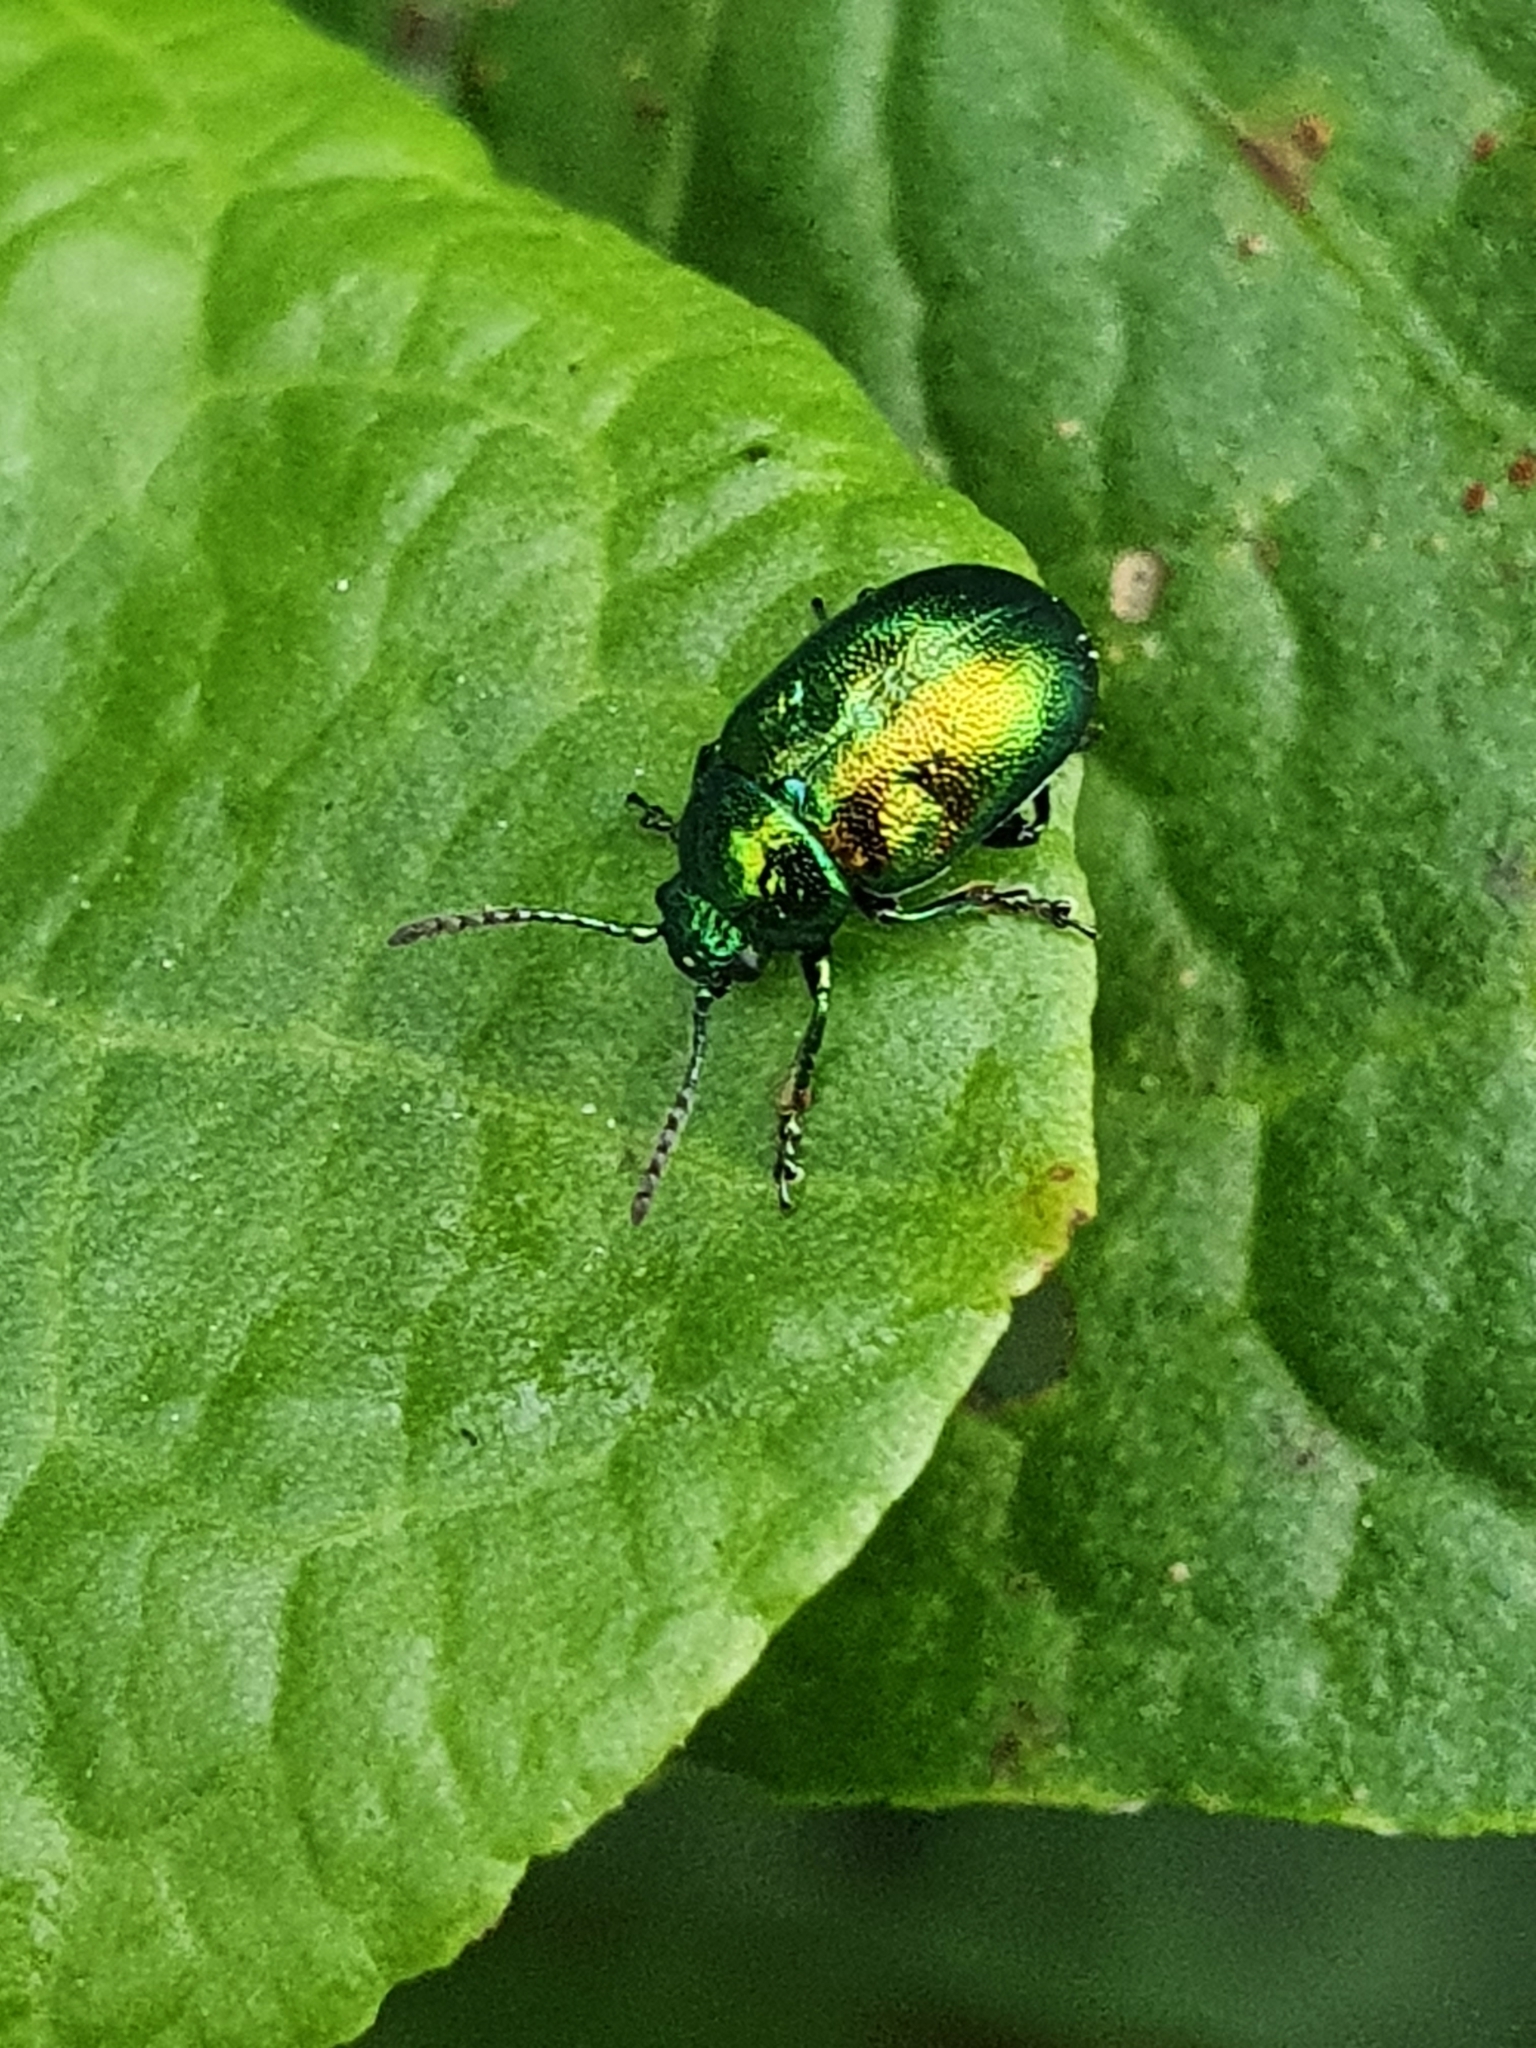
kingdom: Animalia
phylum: Arthropoda
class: Insecta
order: Coleoptera
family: Chrysomelidae
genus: Gastrophysa
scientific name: Gastrophysa viridula
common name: Green dock beetle
